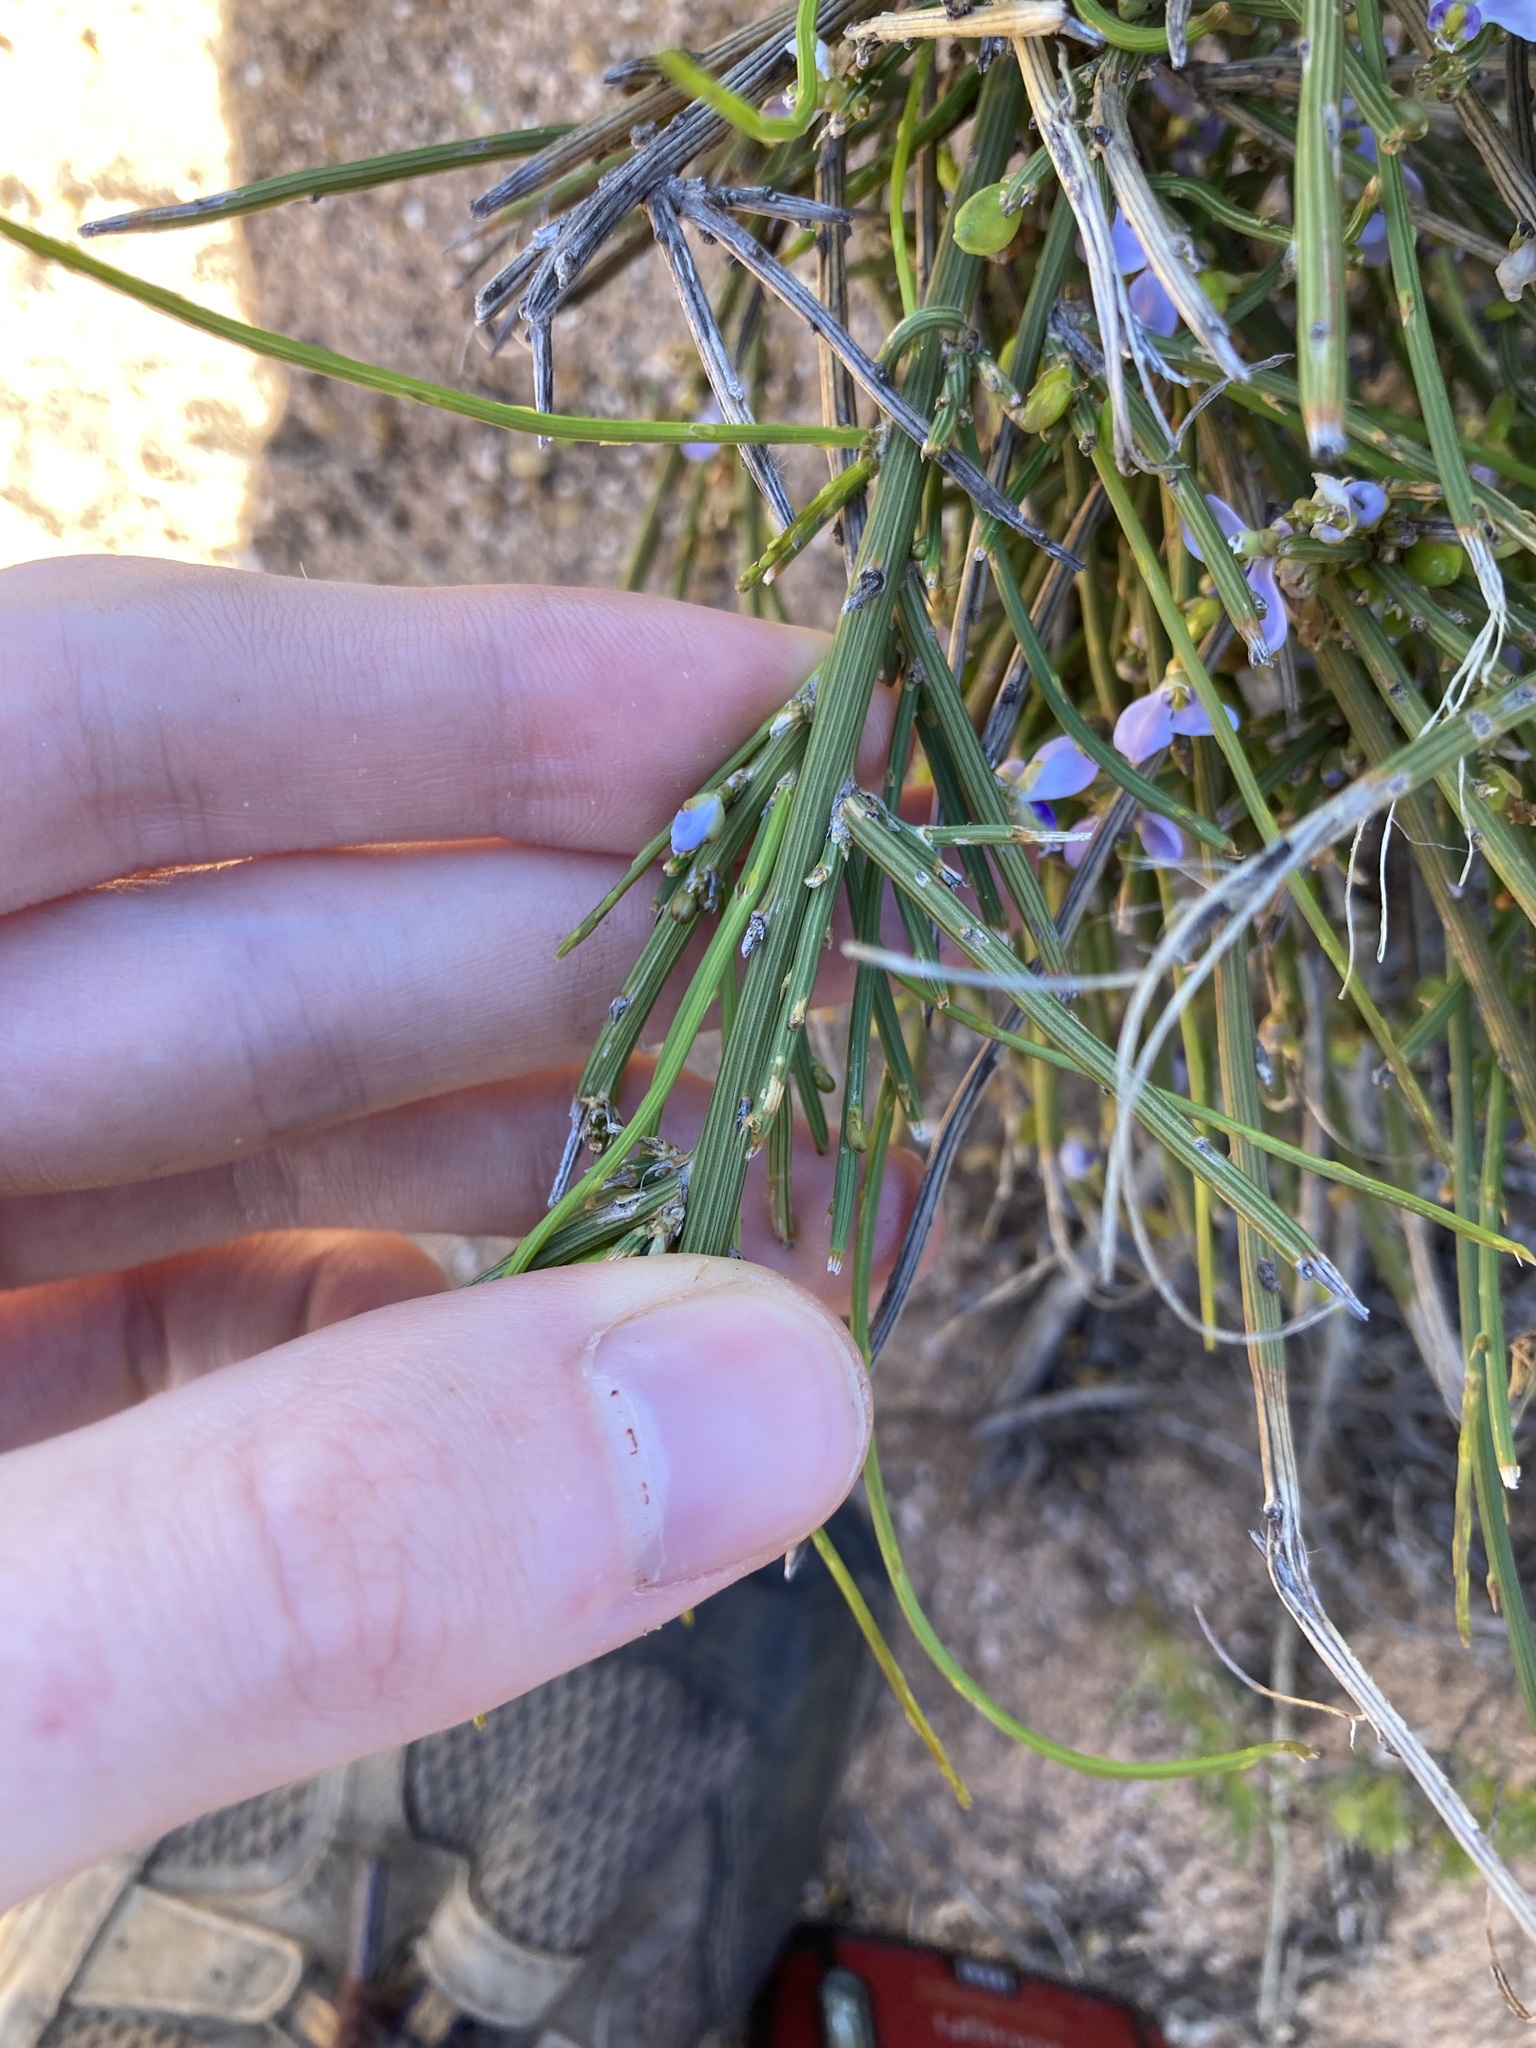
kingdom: Plantae
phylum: Tracheophyta
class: Magnoliopsida
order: Fabales
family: Polygalaceae
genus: Comesperma
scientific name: Comesperma scoparium
